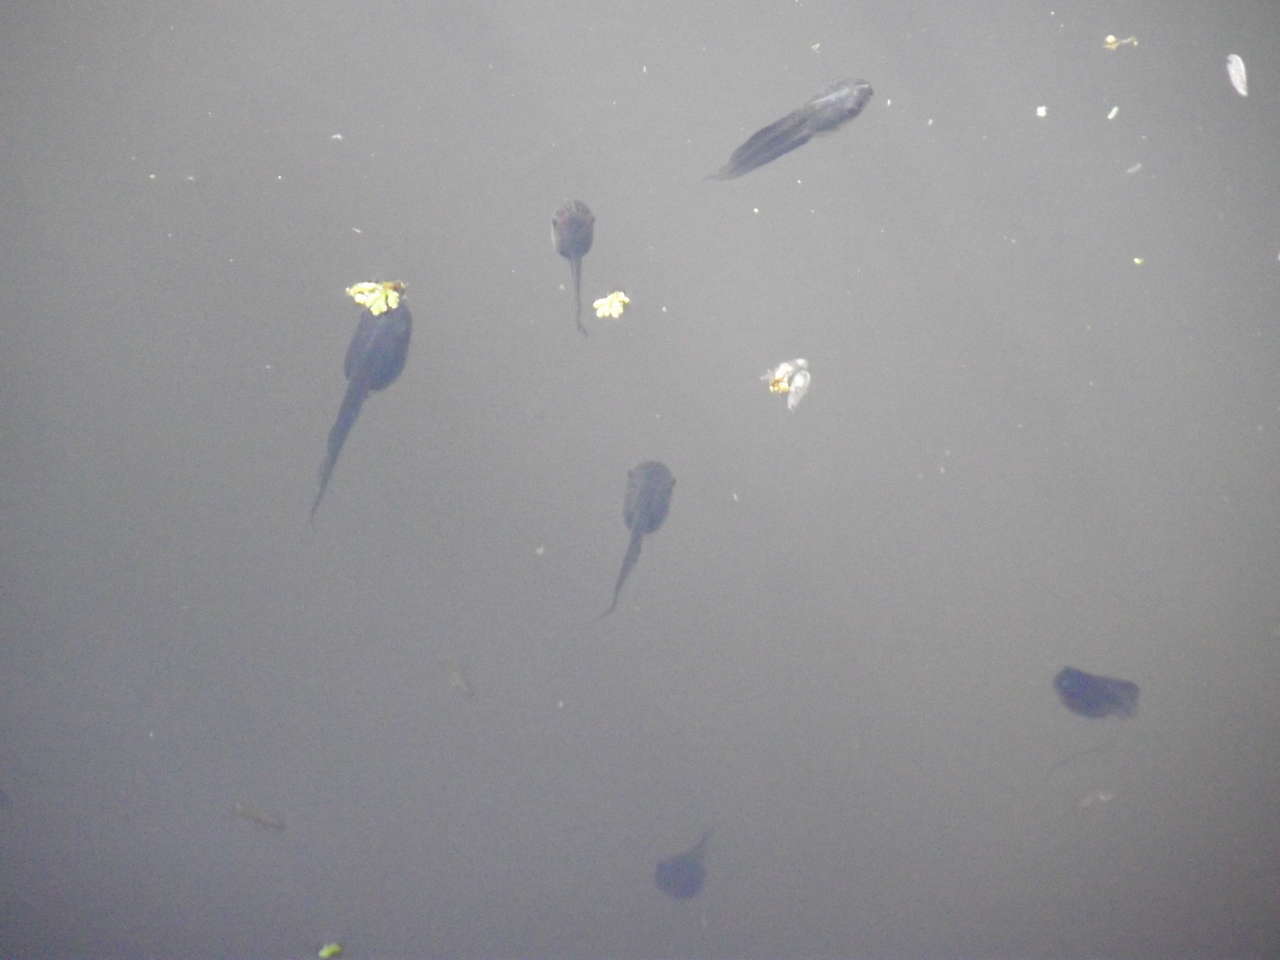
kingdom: Animalia
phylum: Chordata
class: Amphibia
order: Anura
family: Limnodynastidae
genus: Limnodynastes
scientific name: Limnodynastes dumerilii
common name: Banjo frog
